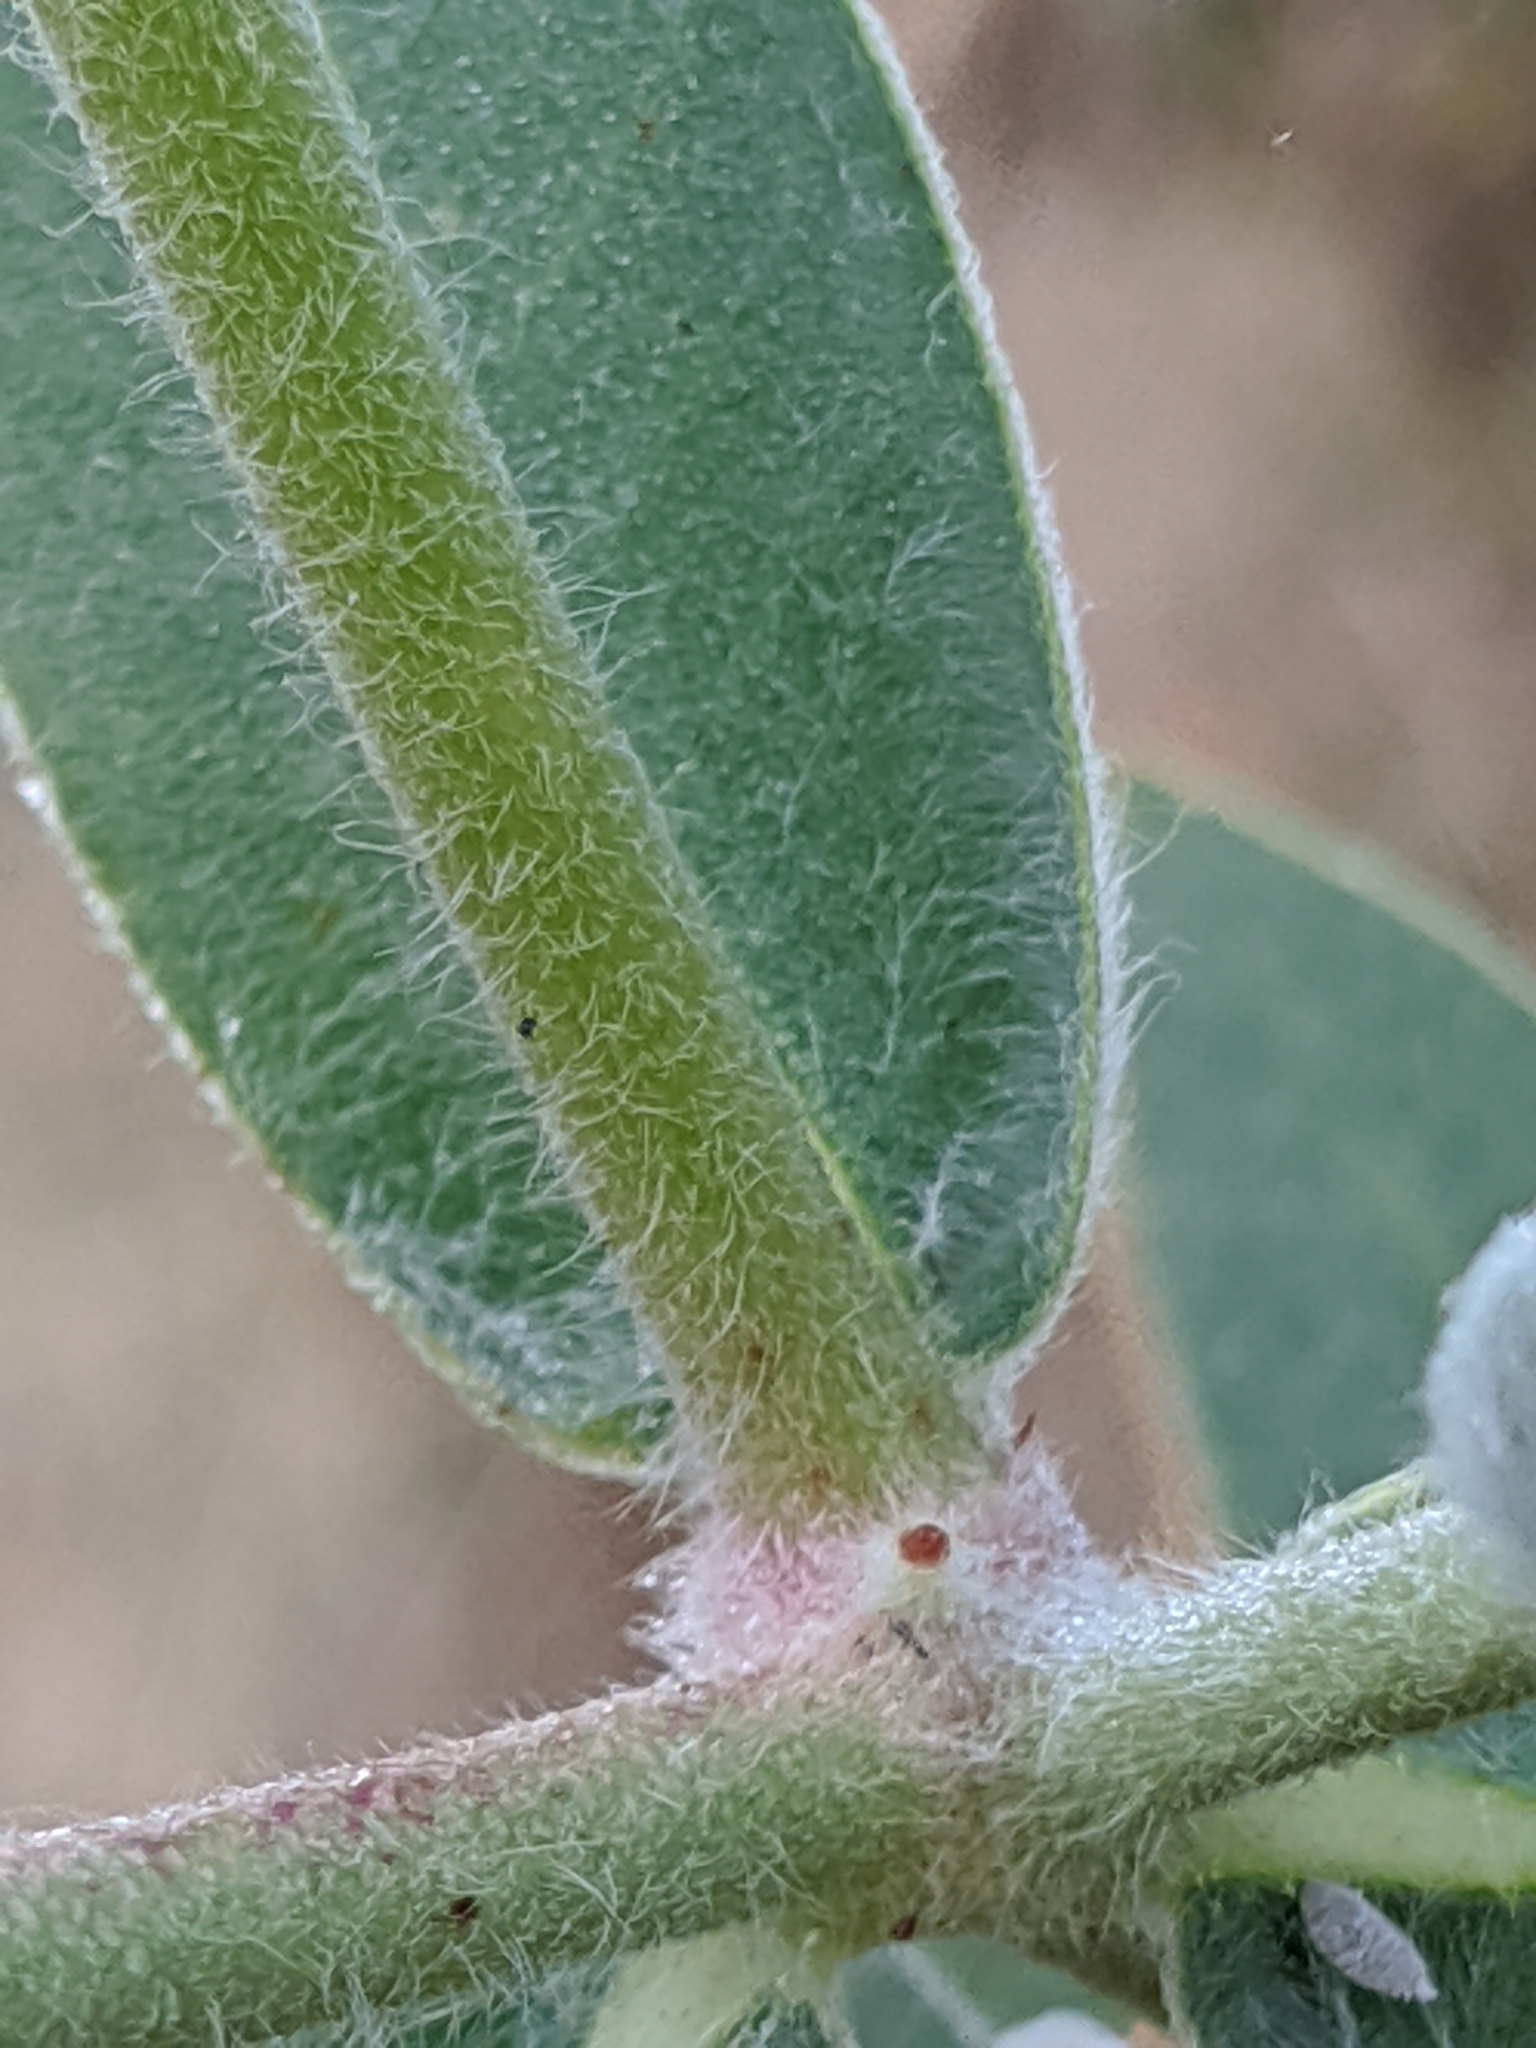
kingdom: Plantae
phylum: Tracheophyta
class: Magnoliopsida
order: Malpighiales
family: Euphorbiaceae
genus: Euphorbia
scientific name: Euphorbia bicolor
